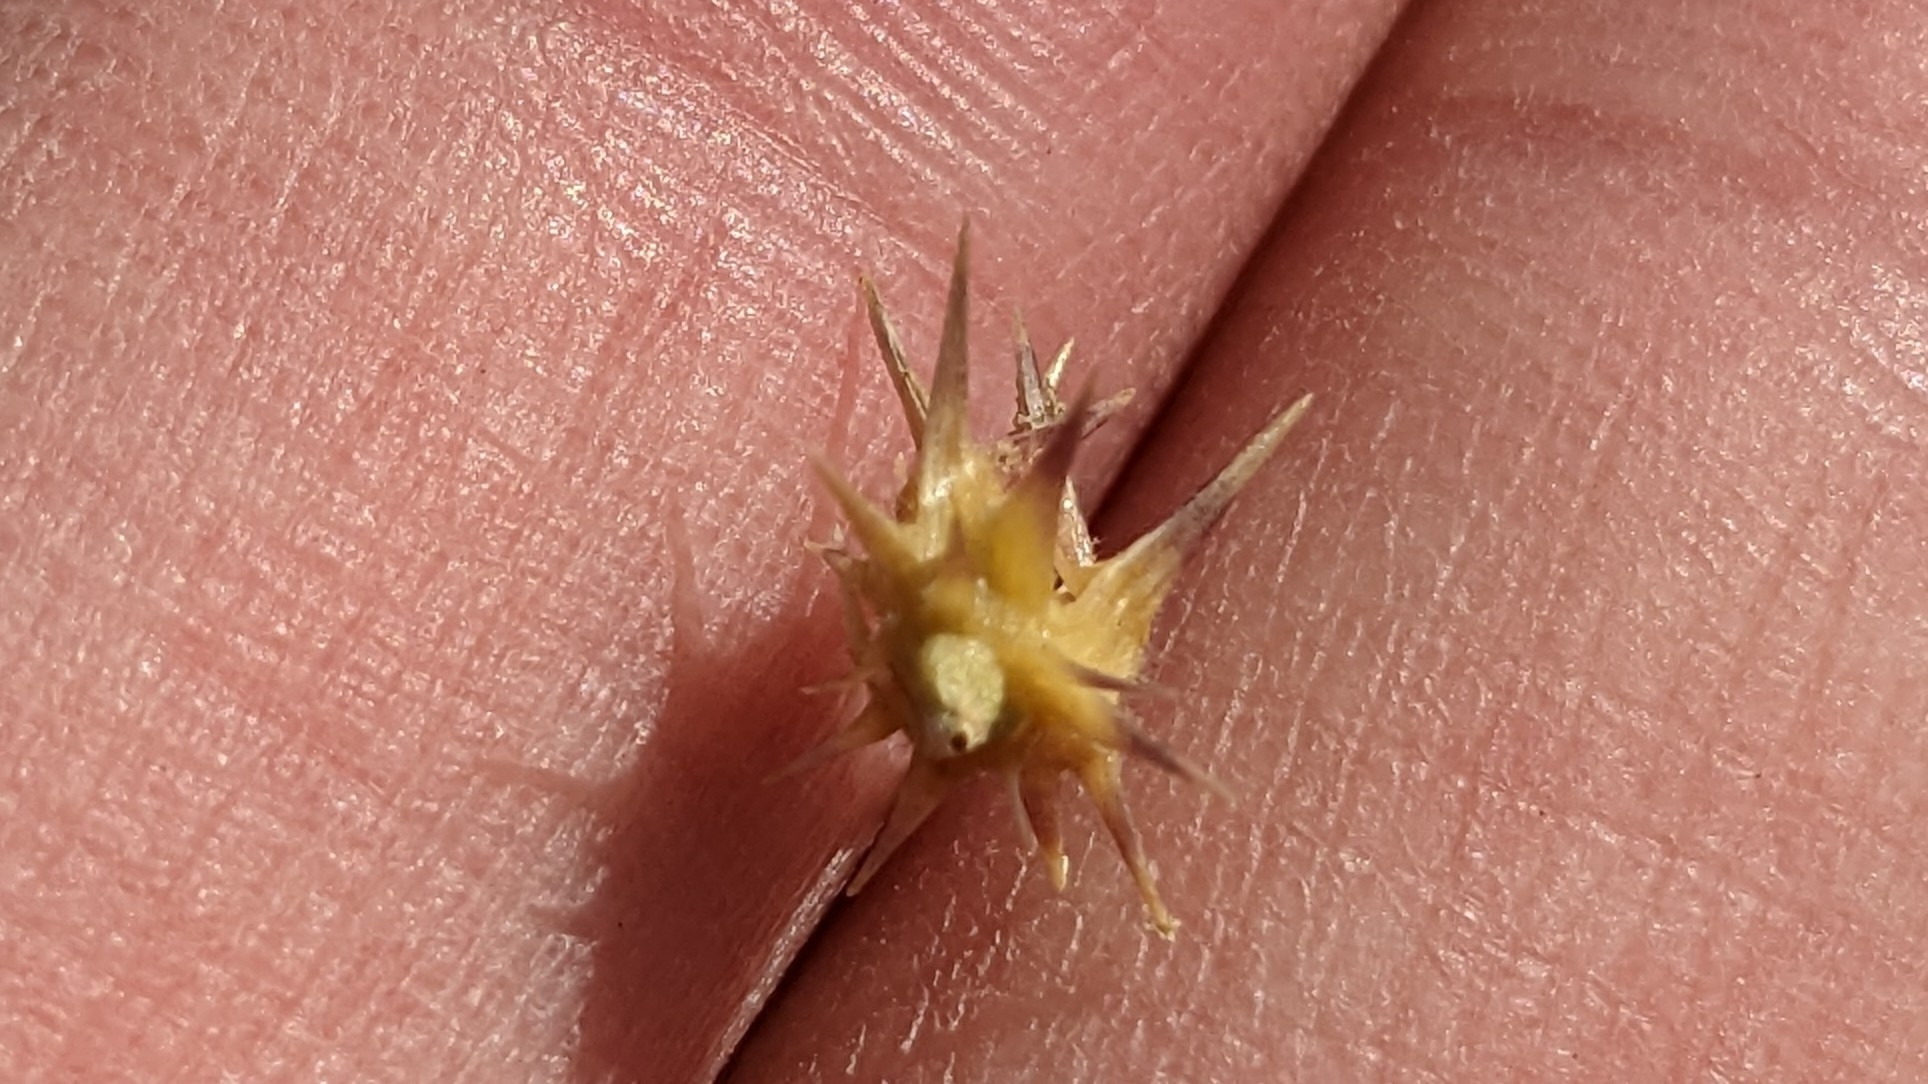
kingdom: Plantae
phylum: Tracheophyta
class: Liliopsida
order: Poales
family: Poaceae
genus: Cenchrus
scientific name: Cenchrus spinifex
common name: Coast sandbur
